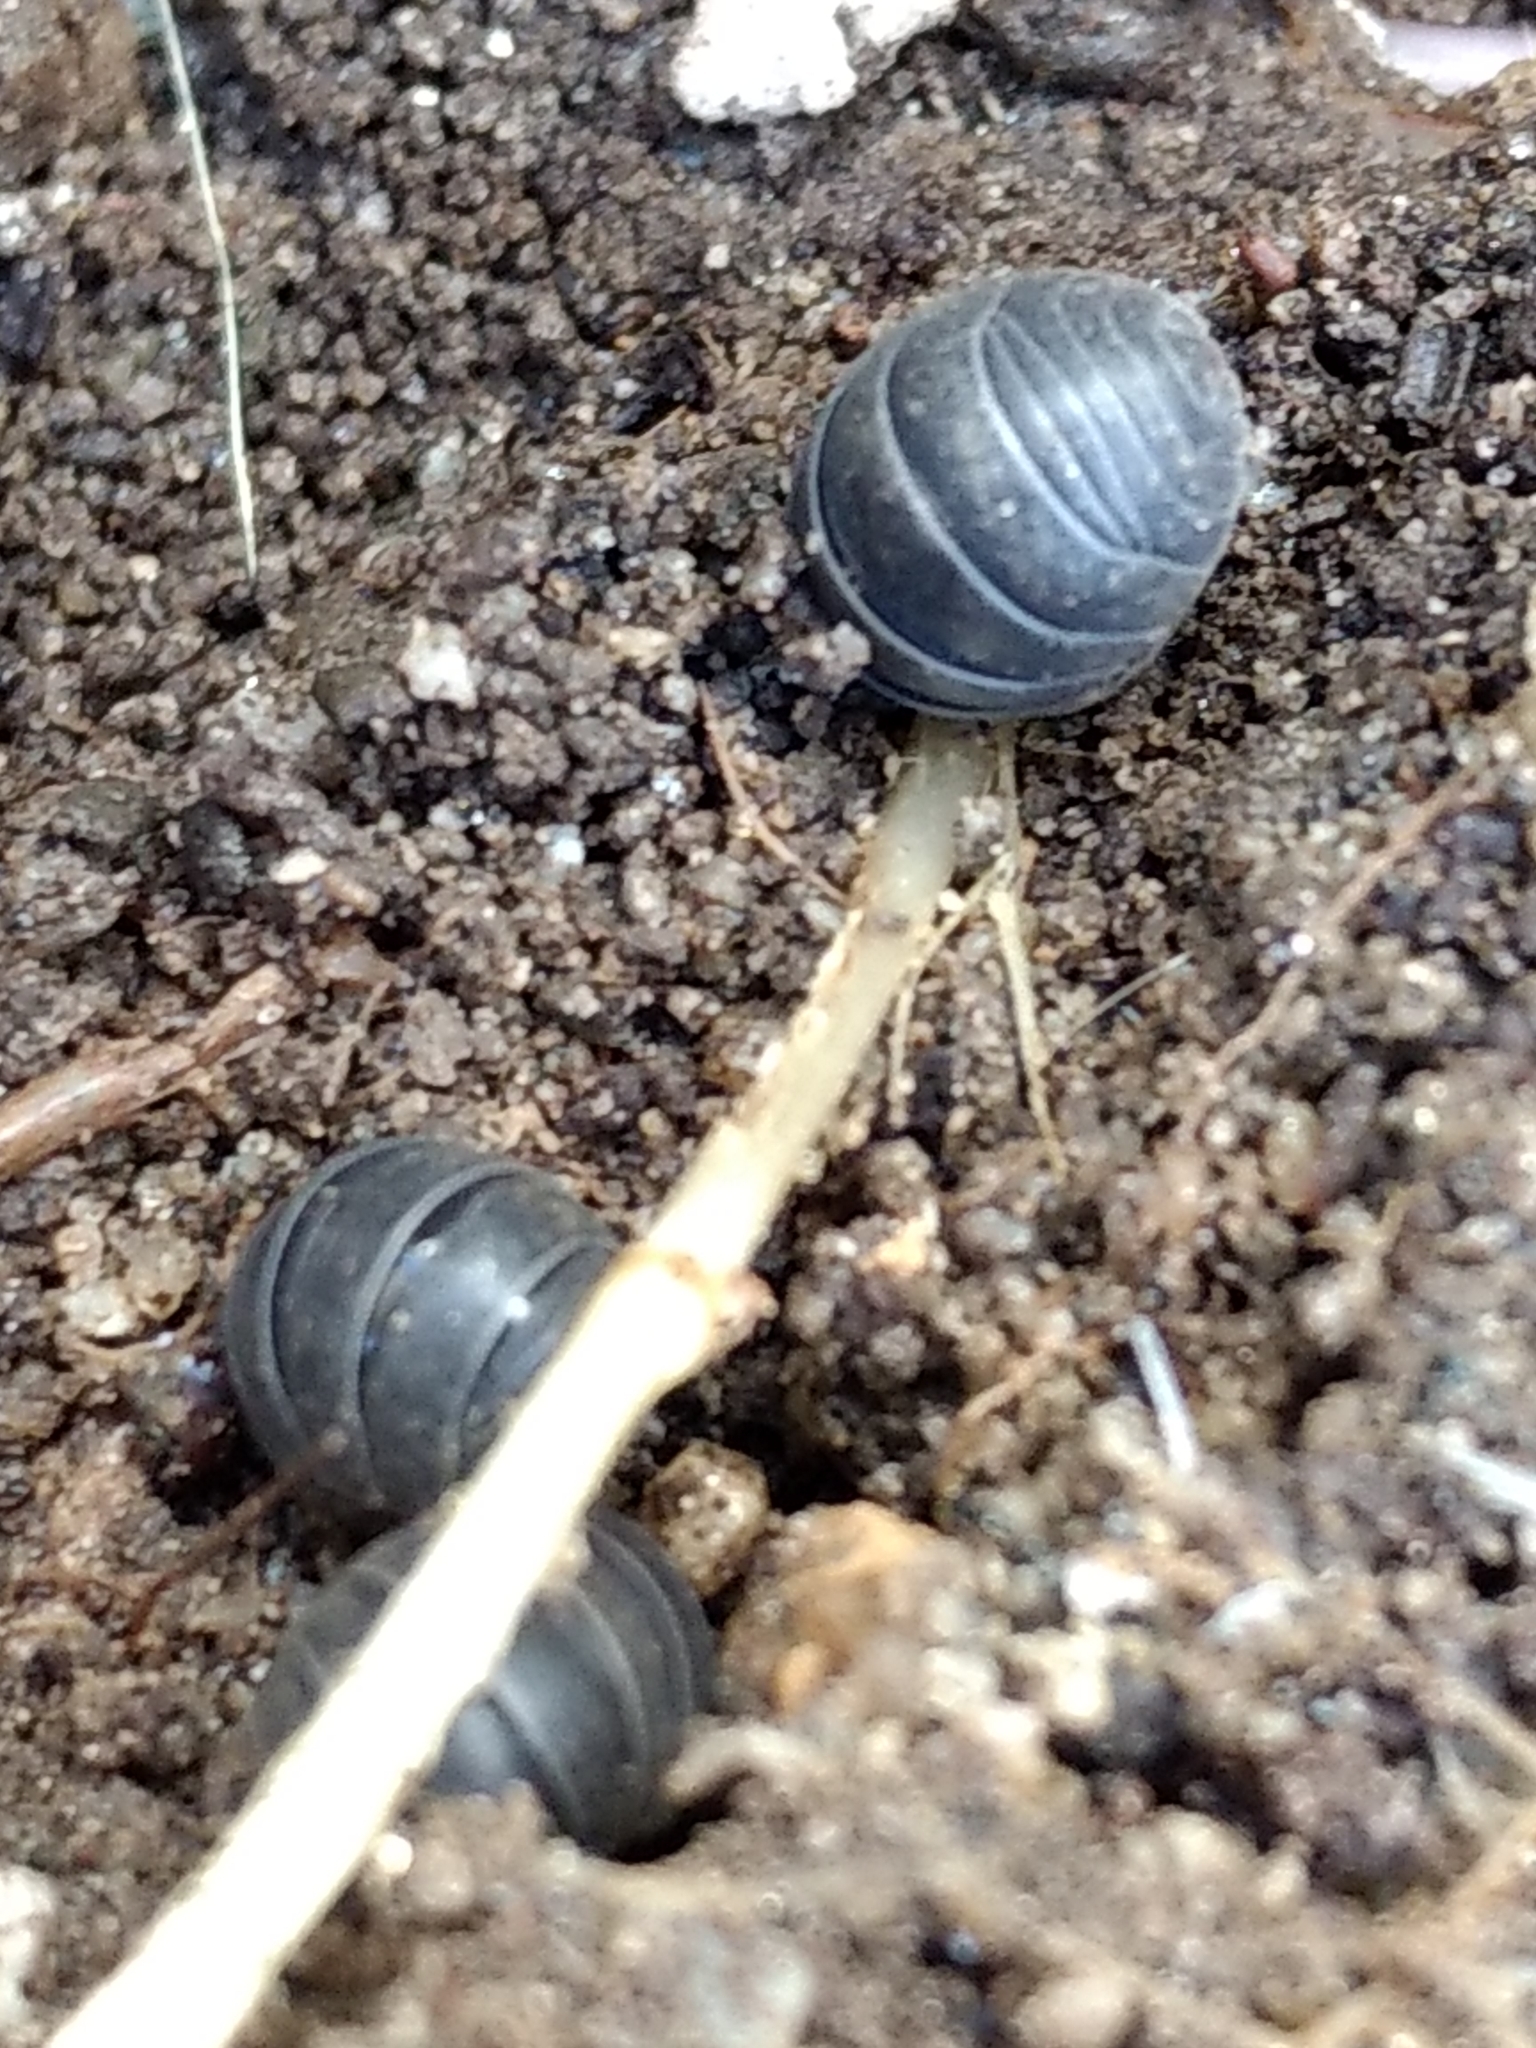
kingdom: Animalia
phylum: Arthropoda
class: Malacostraca
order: Isopoda
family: Armadillidiidae
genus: Armadillidium
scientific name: Armadillidium vulgare
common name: Common pill woodlouse
